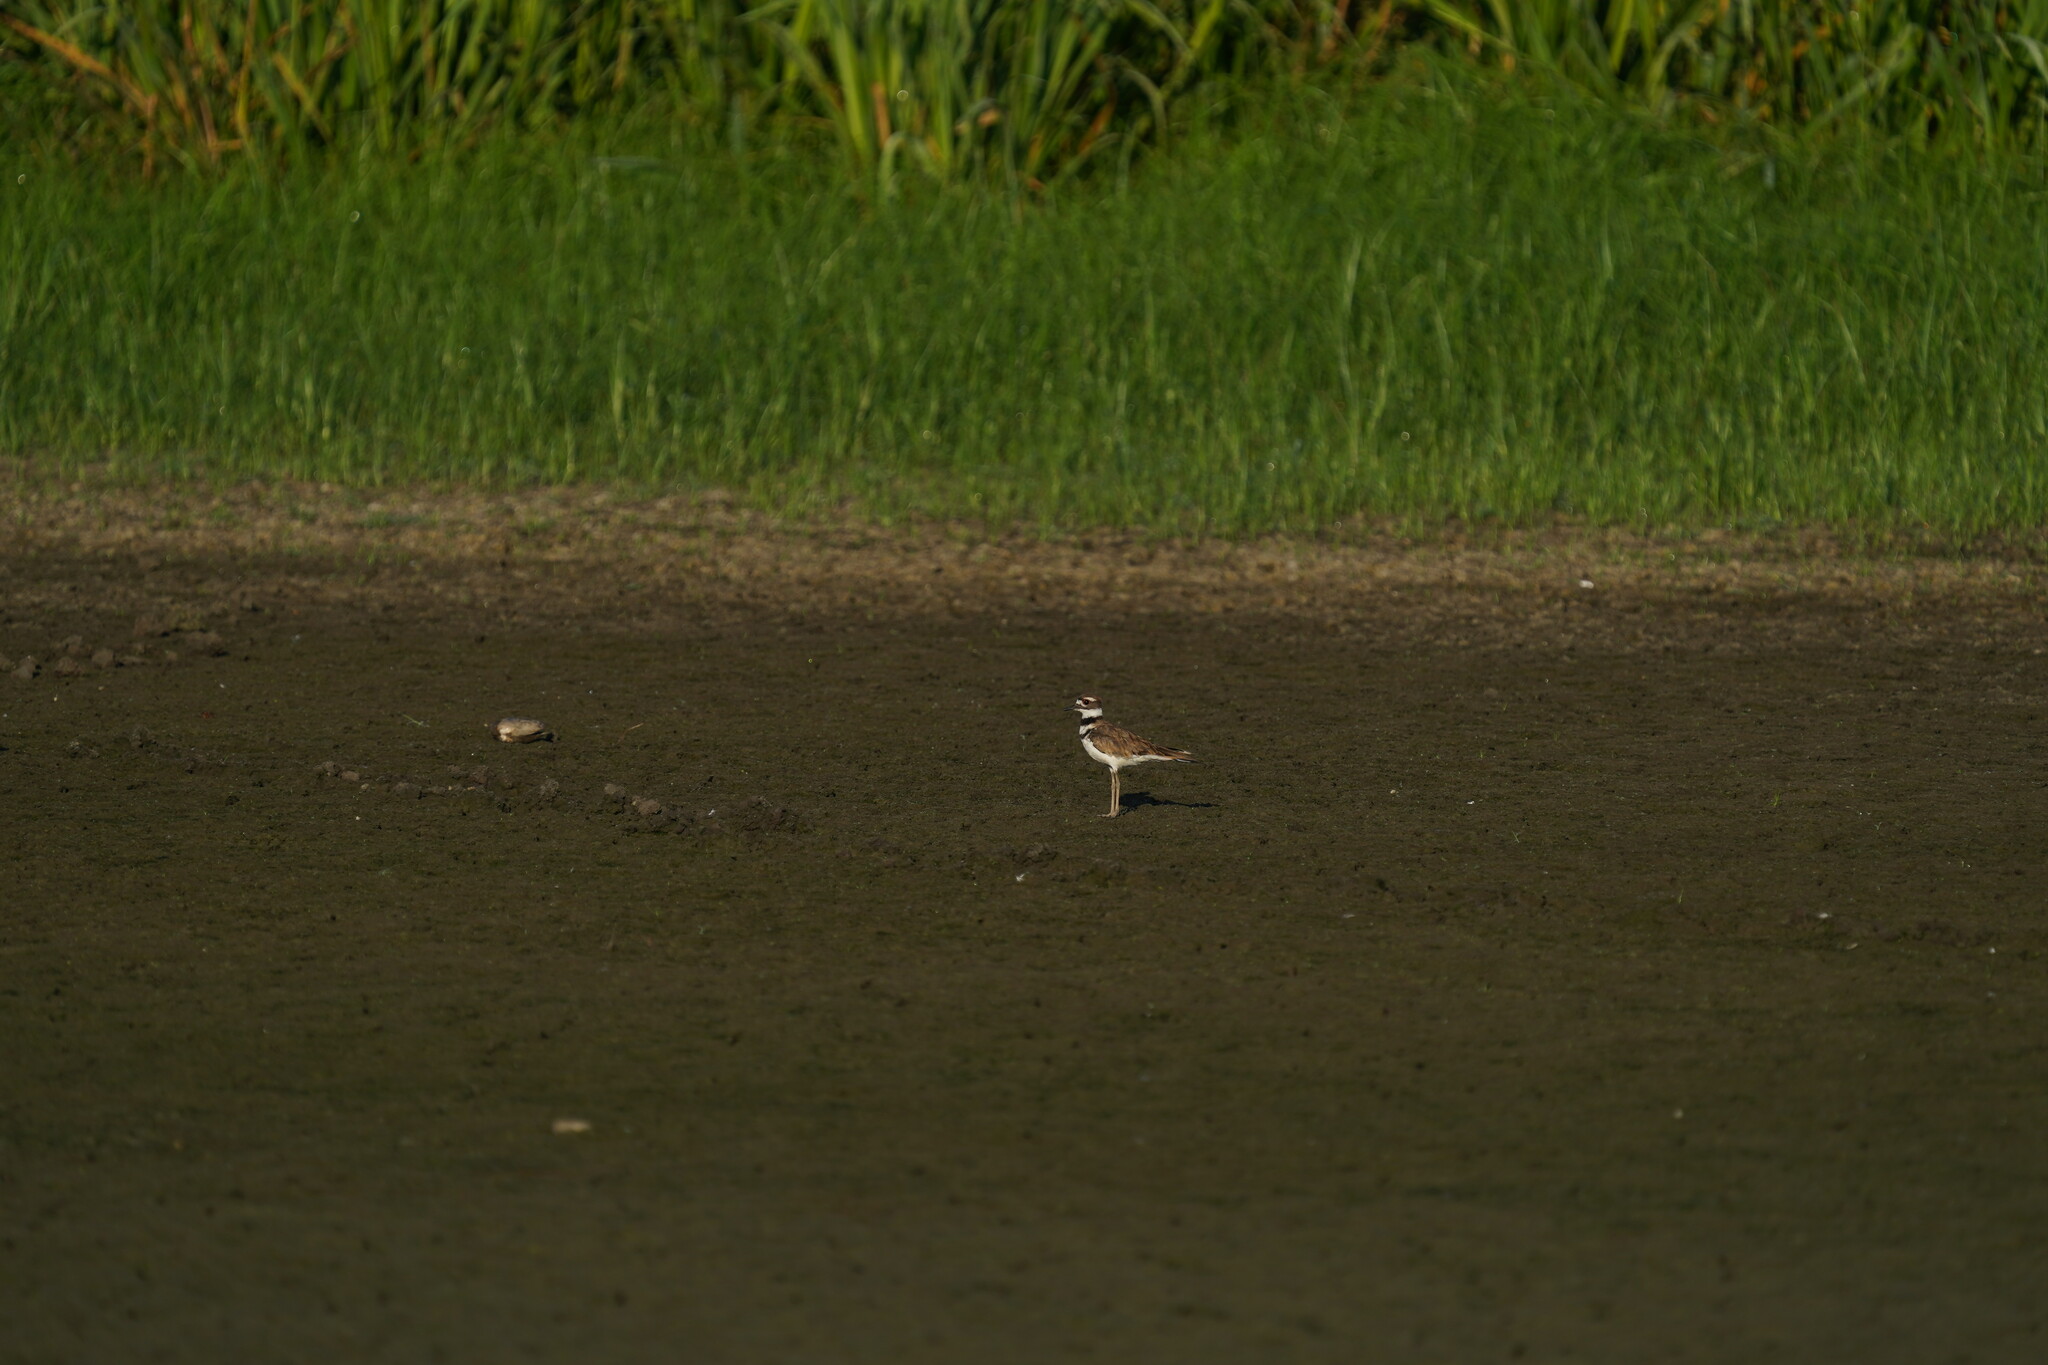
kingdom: Animalia
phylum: Chordata
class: Aves
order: Charadriiformes
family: Charadriidae
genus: Charadrius
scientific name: Charadrius vociferus
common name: Killdeer
